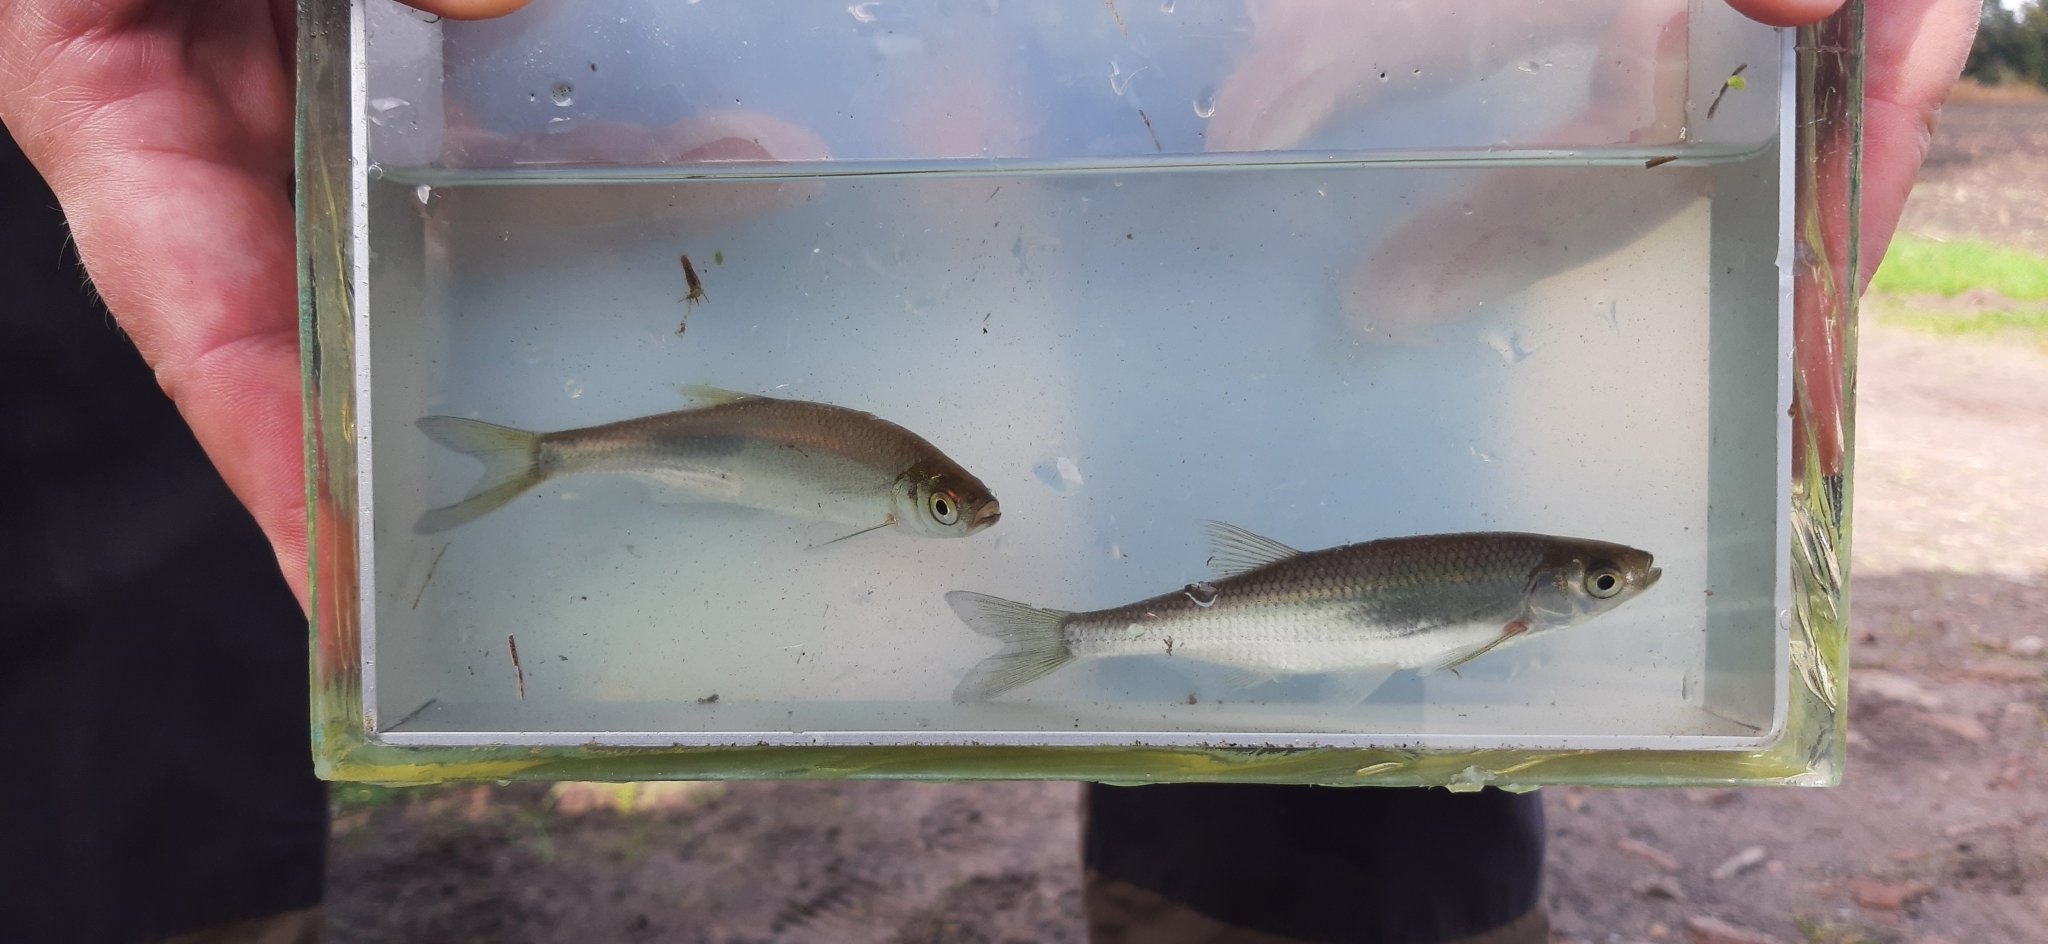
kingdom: Animalia
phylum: Chordata
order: Cypriniformes
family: Cyprinidae
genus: Alburnus
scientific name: Alburnus alburnus
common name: Bleak
